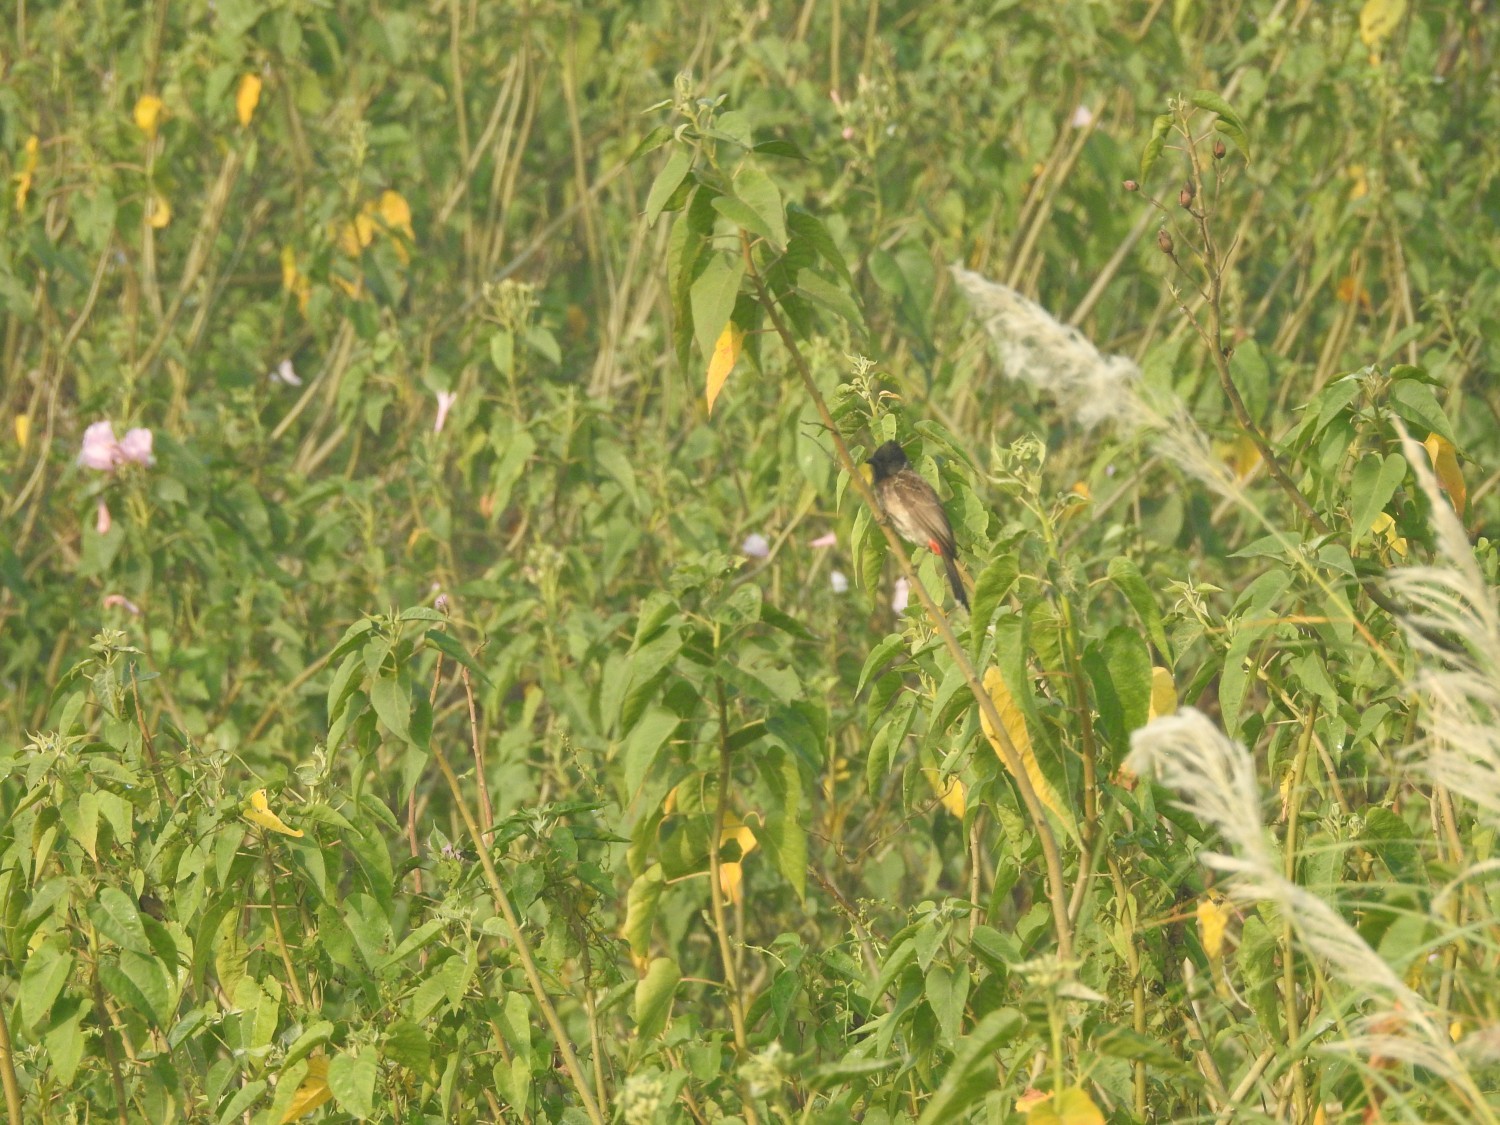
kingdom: Animalia
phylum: Chordata
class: Aves
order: Passeriformes
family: Pycnonotidae
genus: Pycnonotus
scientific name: Pycnonotus cafer
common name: Red-vented bulbul
